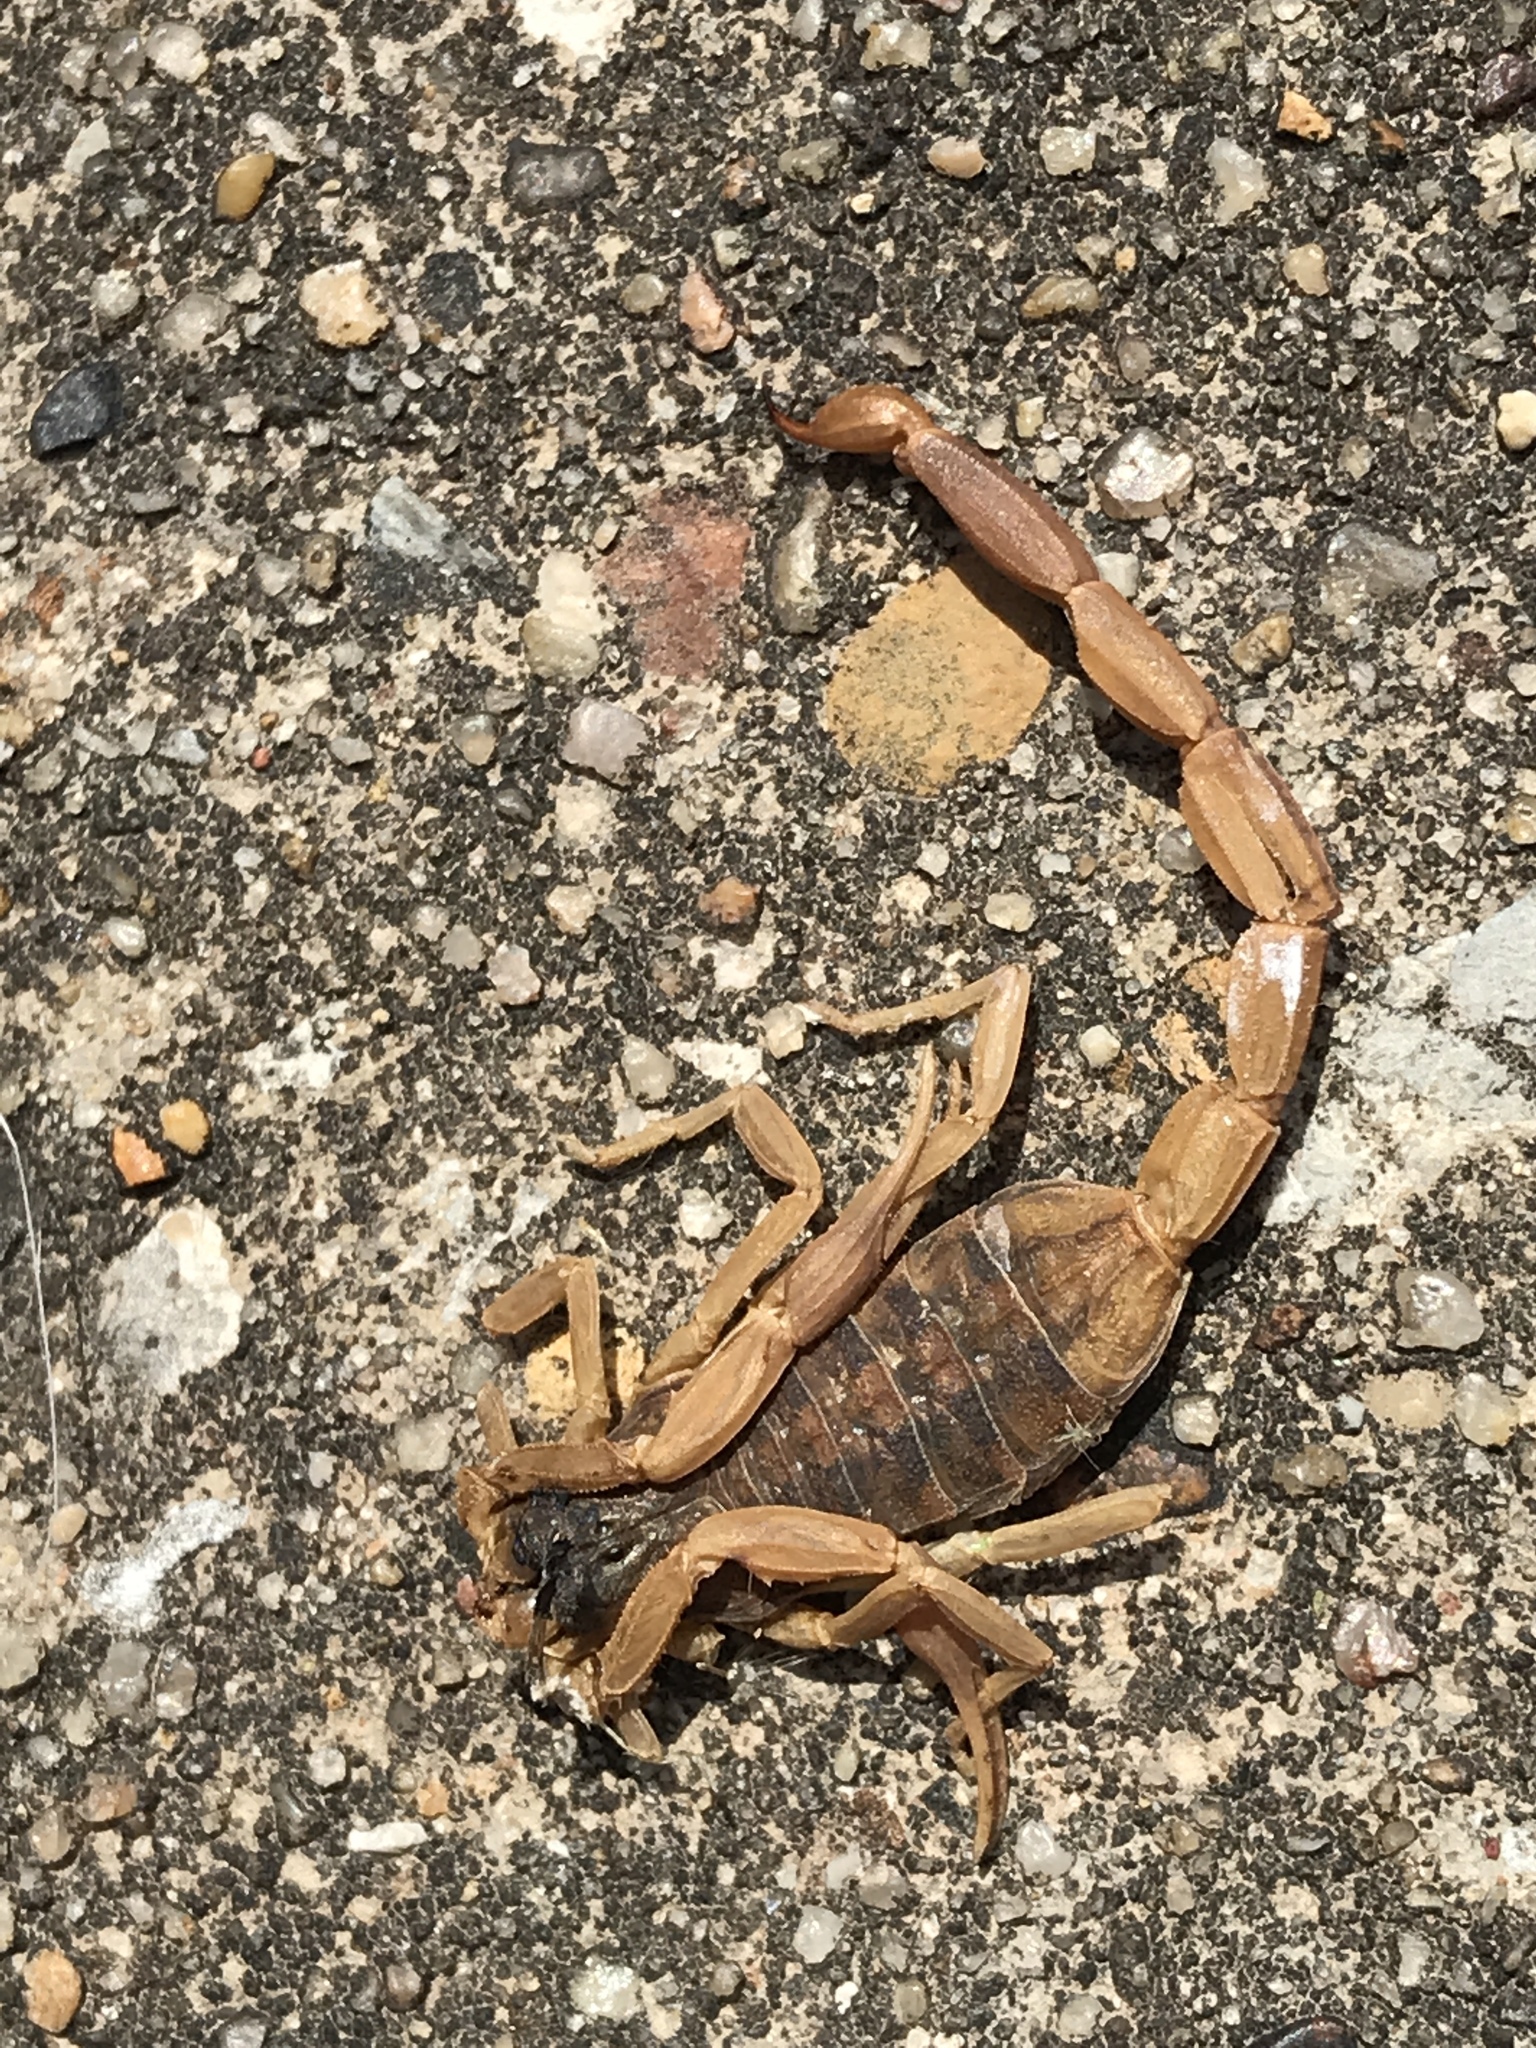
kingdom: Animalia
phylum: Arthropoda
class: Arachnida
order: Scorpiones
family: Buthidae
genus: Centruroides
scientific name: Centruroides vittatus
